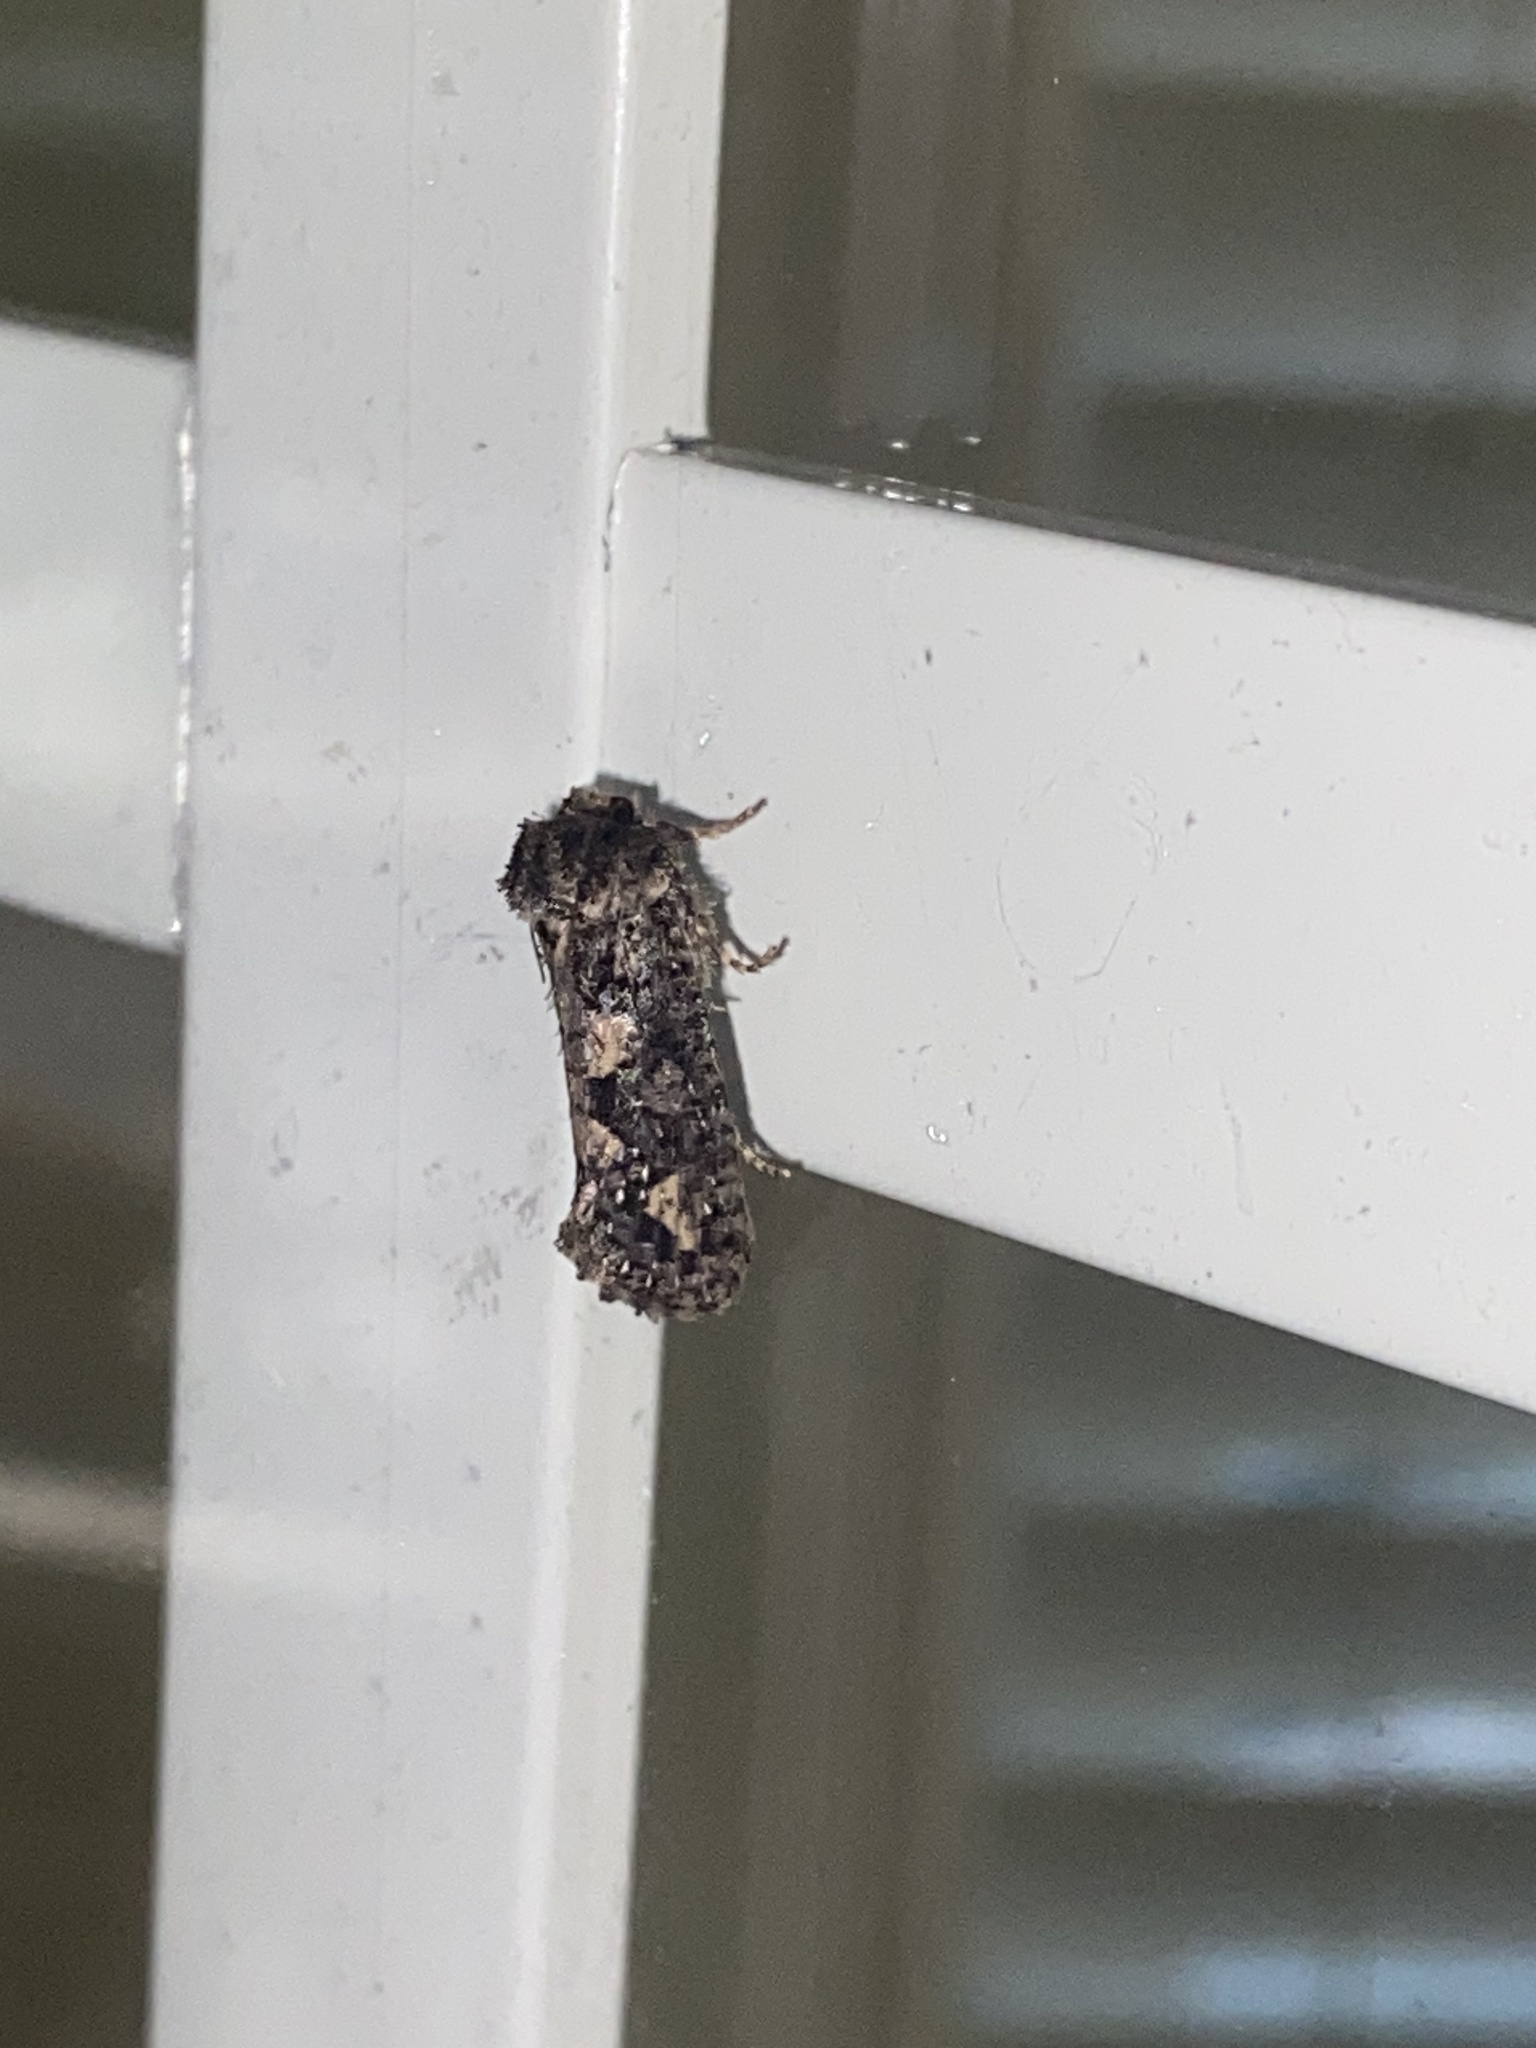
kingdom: Animalia
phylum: Arthropoda
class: Insecta
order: Lepidoptera
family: Tineidae
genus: Acrolophus
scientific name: Acrolophus arcanella
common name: Arcane grass tubeworm moth
